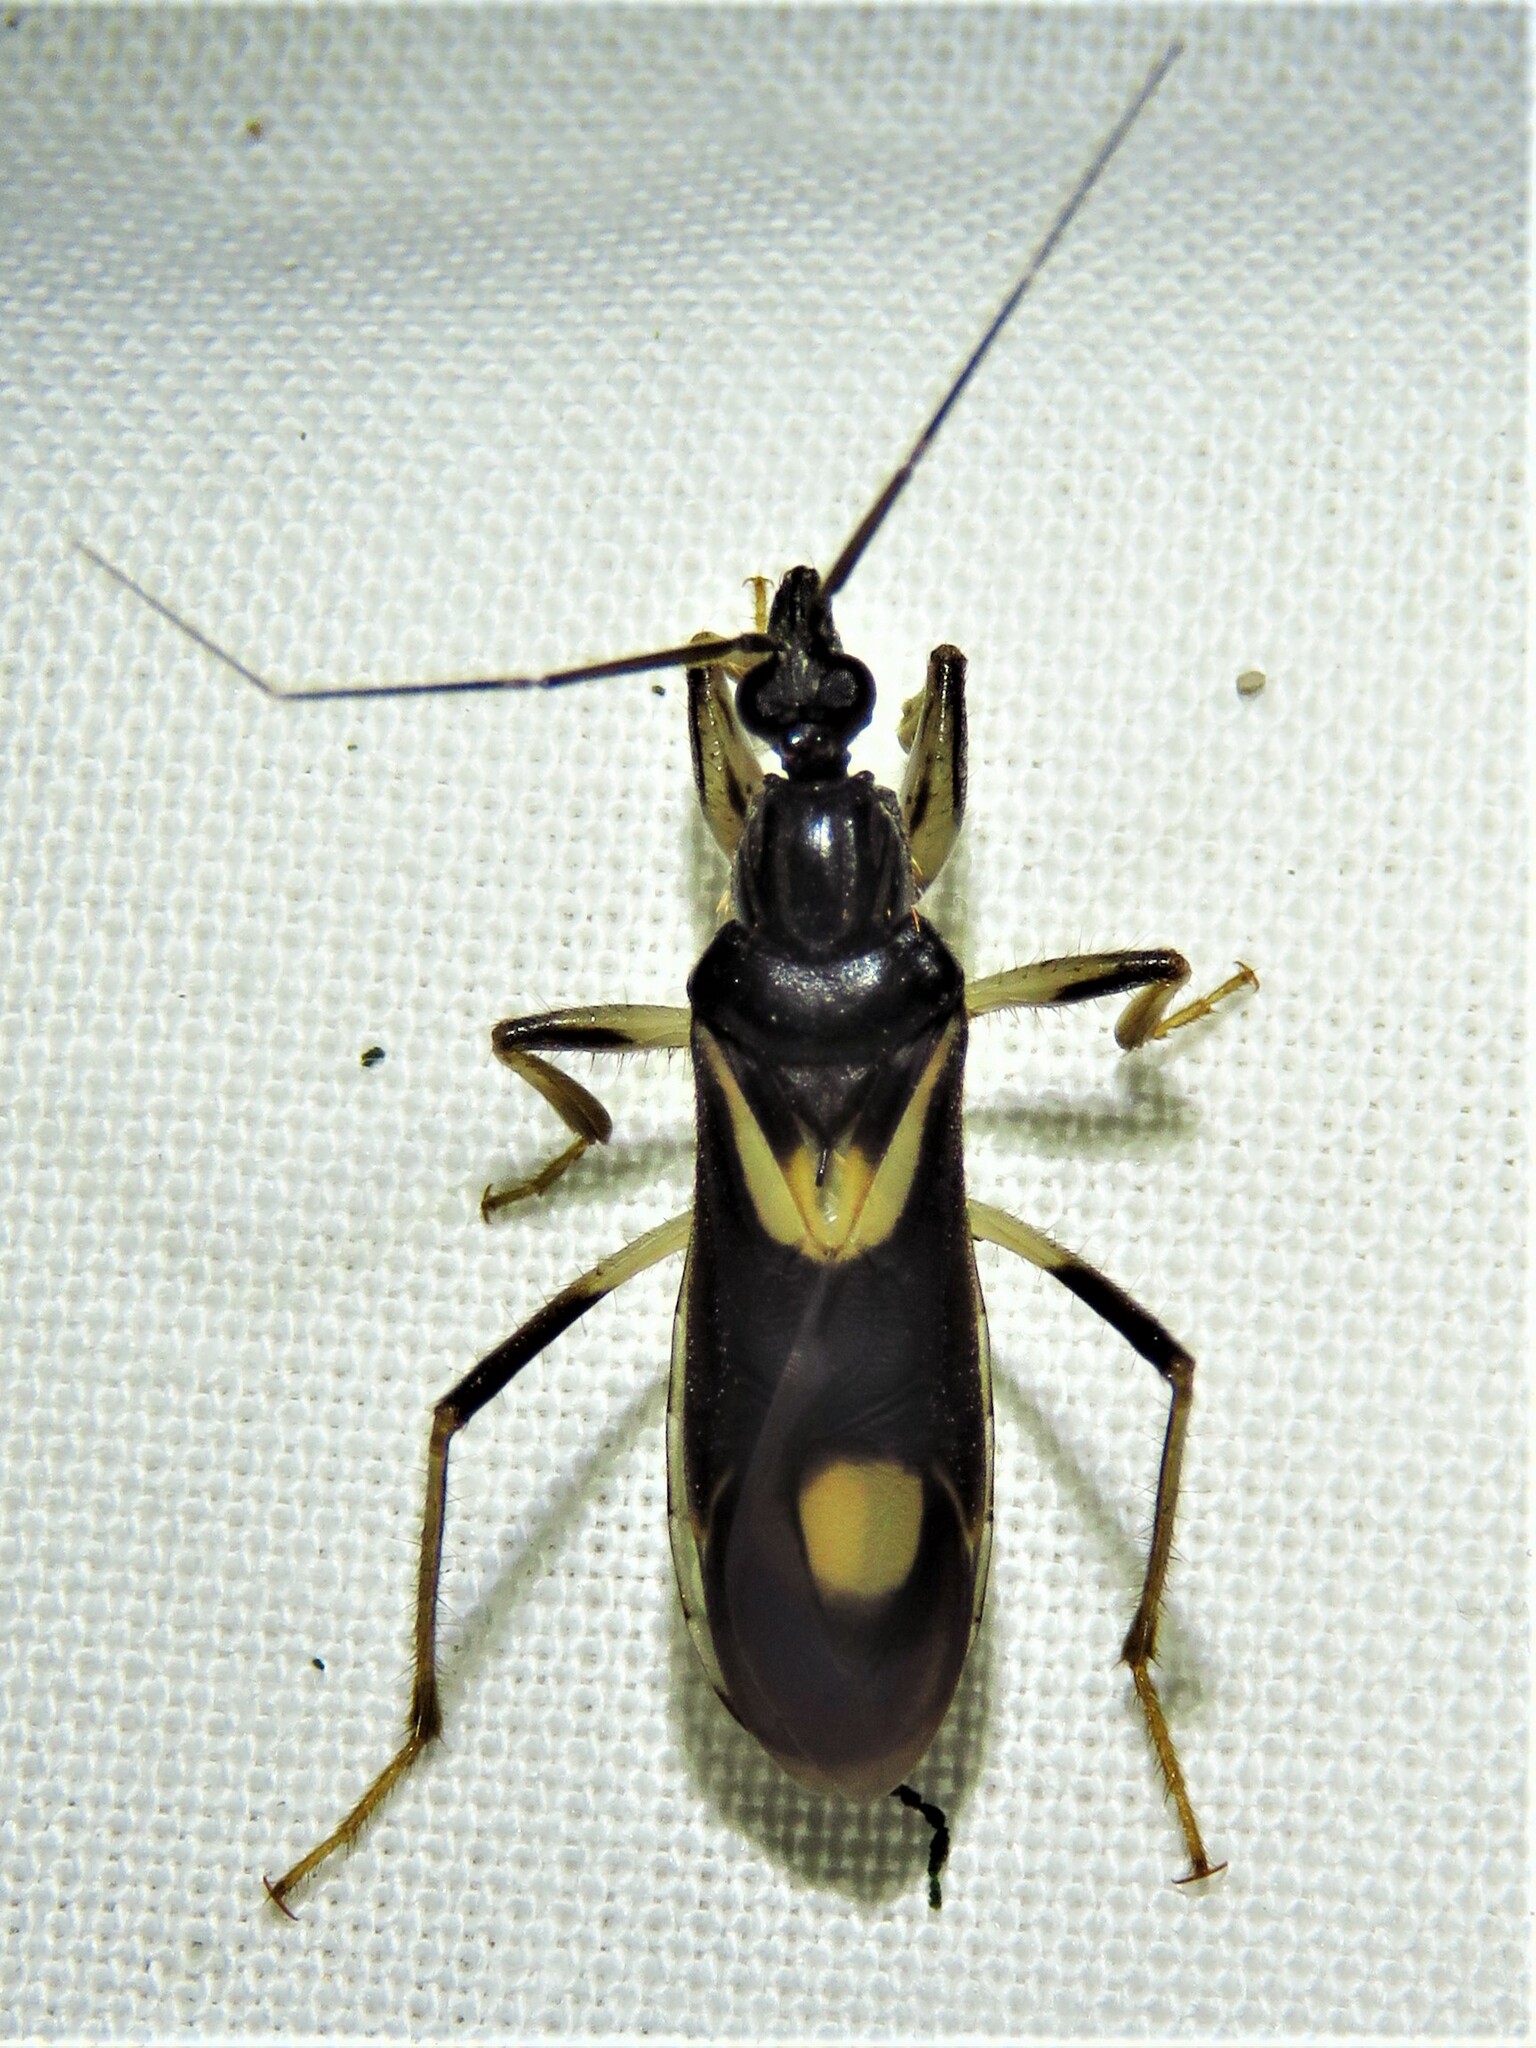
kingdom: Animalia
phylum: Arthropoda
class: Insecta
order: Hemiptera
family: Reduviidae
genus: Rasahus
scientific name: Rasahus hamatus
